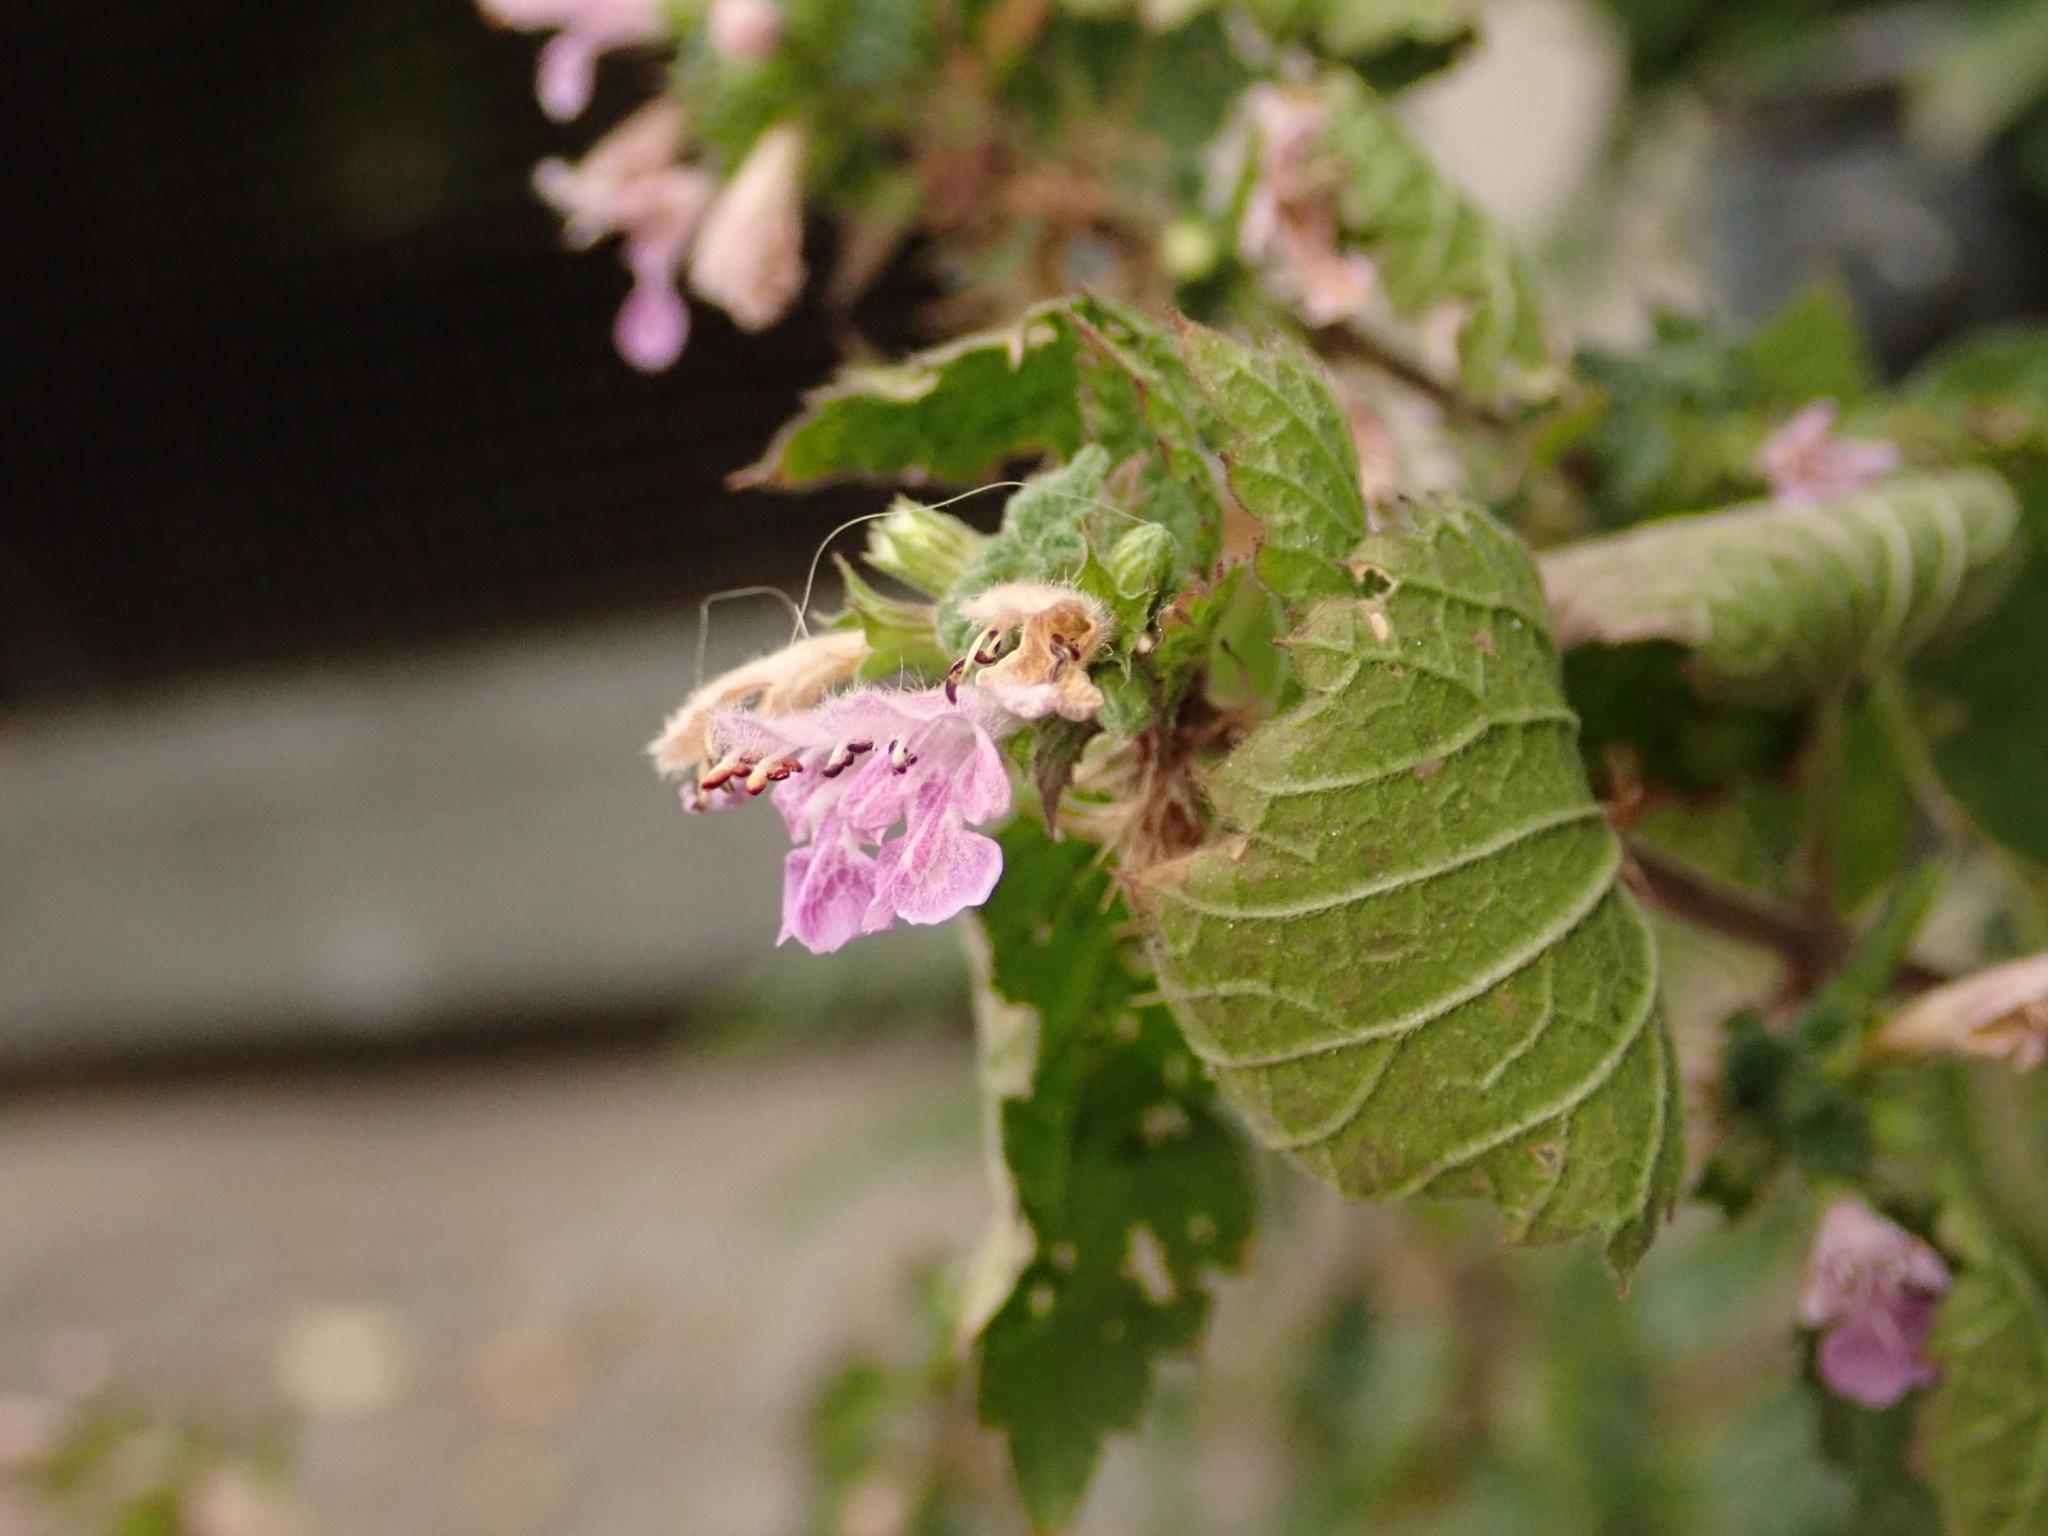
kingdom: Plantae
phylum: Tracheophyta
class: Magnoliopsida
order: Lamiales
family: Lamiaceae
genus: Ballota
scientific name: Ballota nigra
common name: Black horehound
